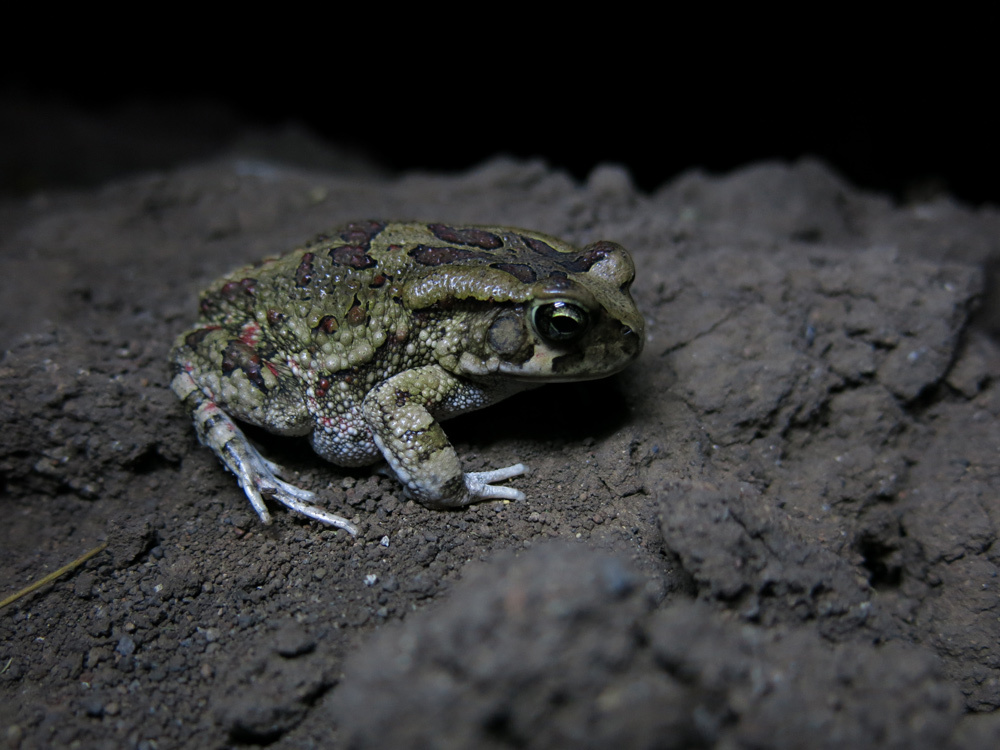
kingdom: Animalia
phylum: Chordata
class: Amphibia
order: Anura
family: Bufonidae
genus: Sclerophrys
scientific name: Sclerophrys garmani
